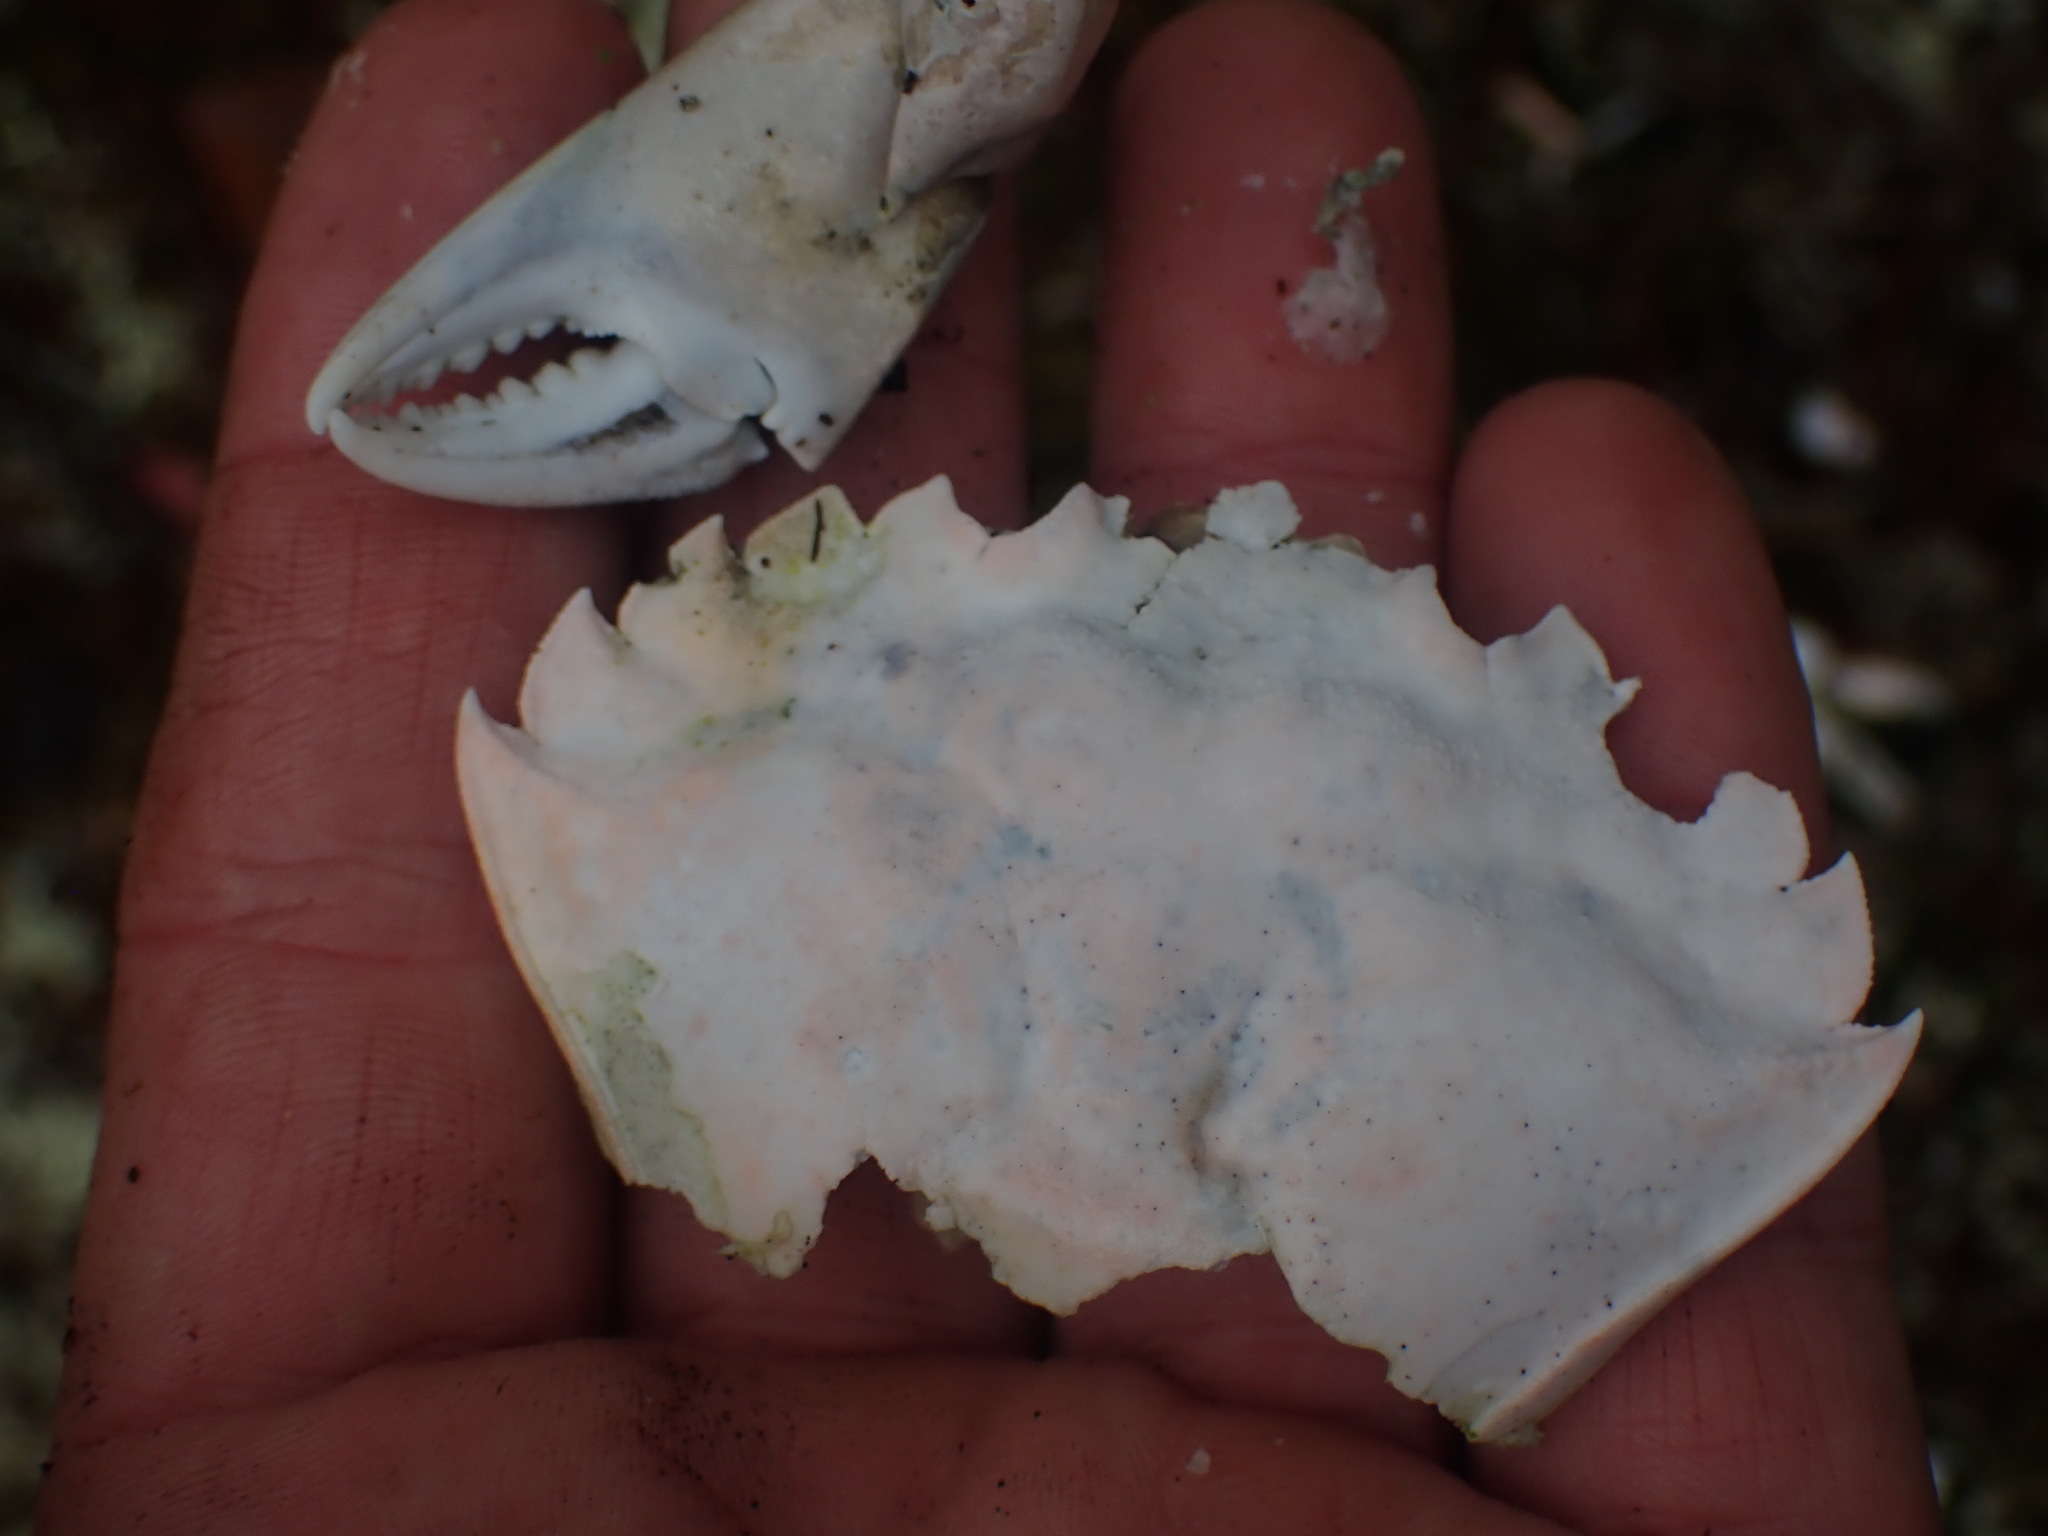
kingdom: Animalia
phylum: Arthropoda
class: Malacostraca
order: Decapoda
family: Carcinidae
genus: Carcinus
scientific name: Carcinus maenas
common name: European green crab
